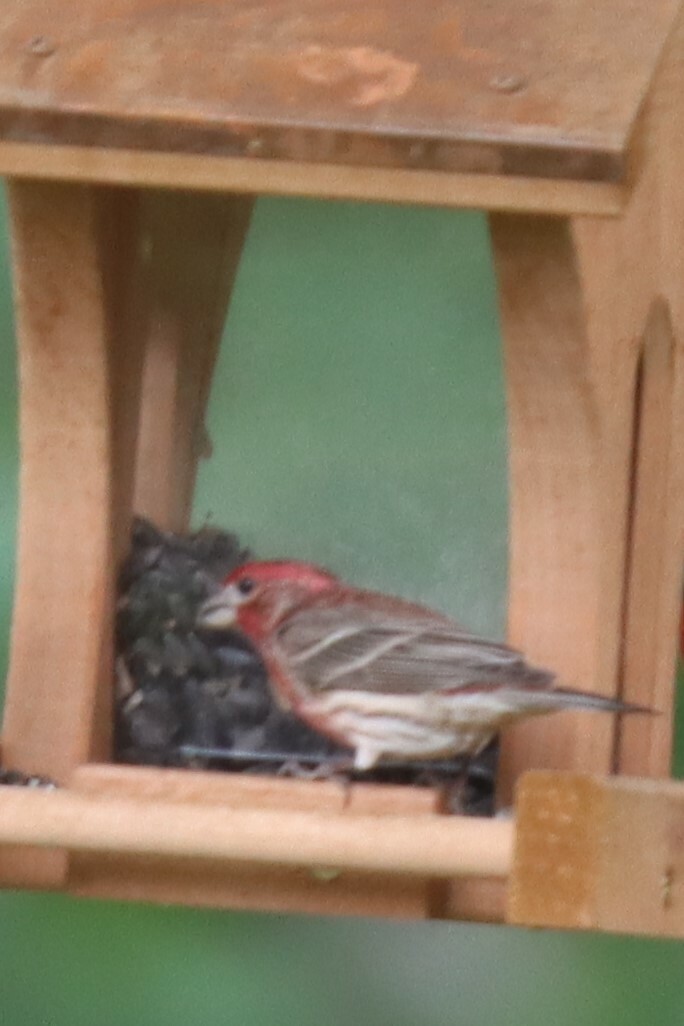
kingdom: Animalia
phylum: Chordata
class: Aves
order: Passeriformes
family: Fringillidae
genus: Haemorhous
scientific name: Haemorhous mexicanus
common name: House finch
